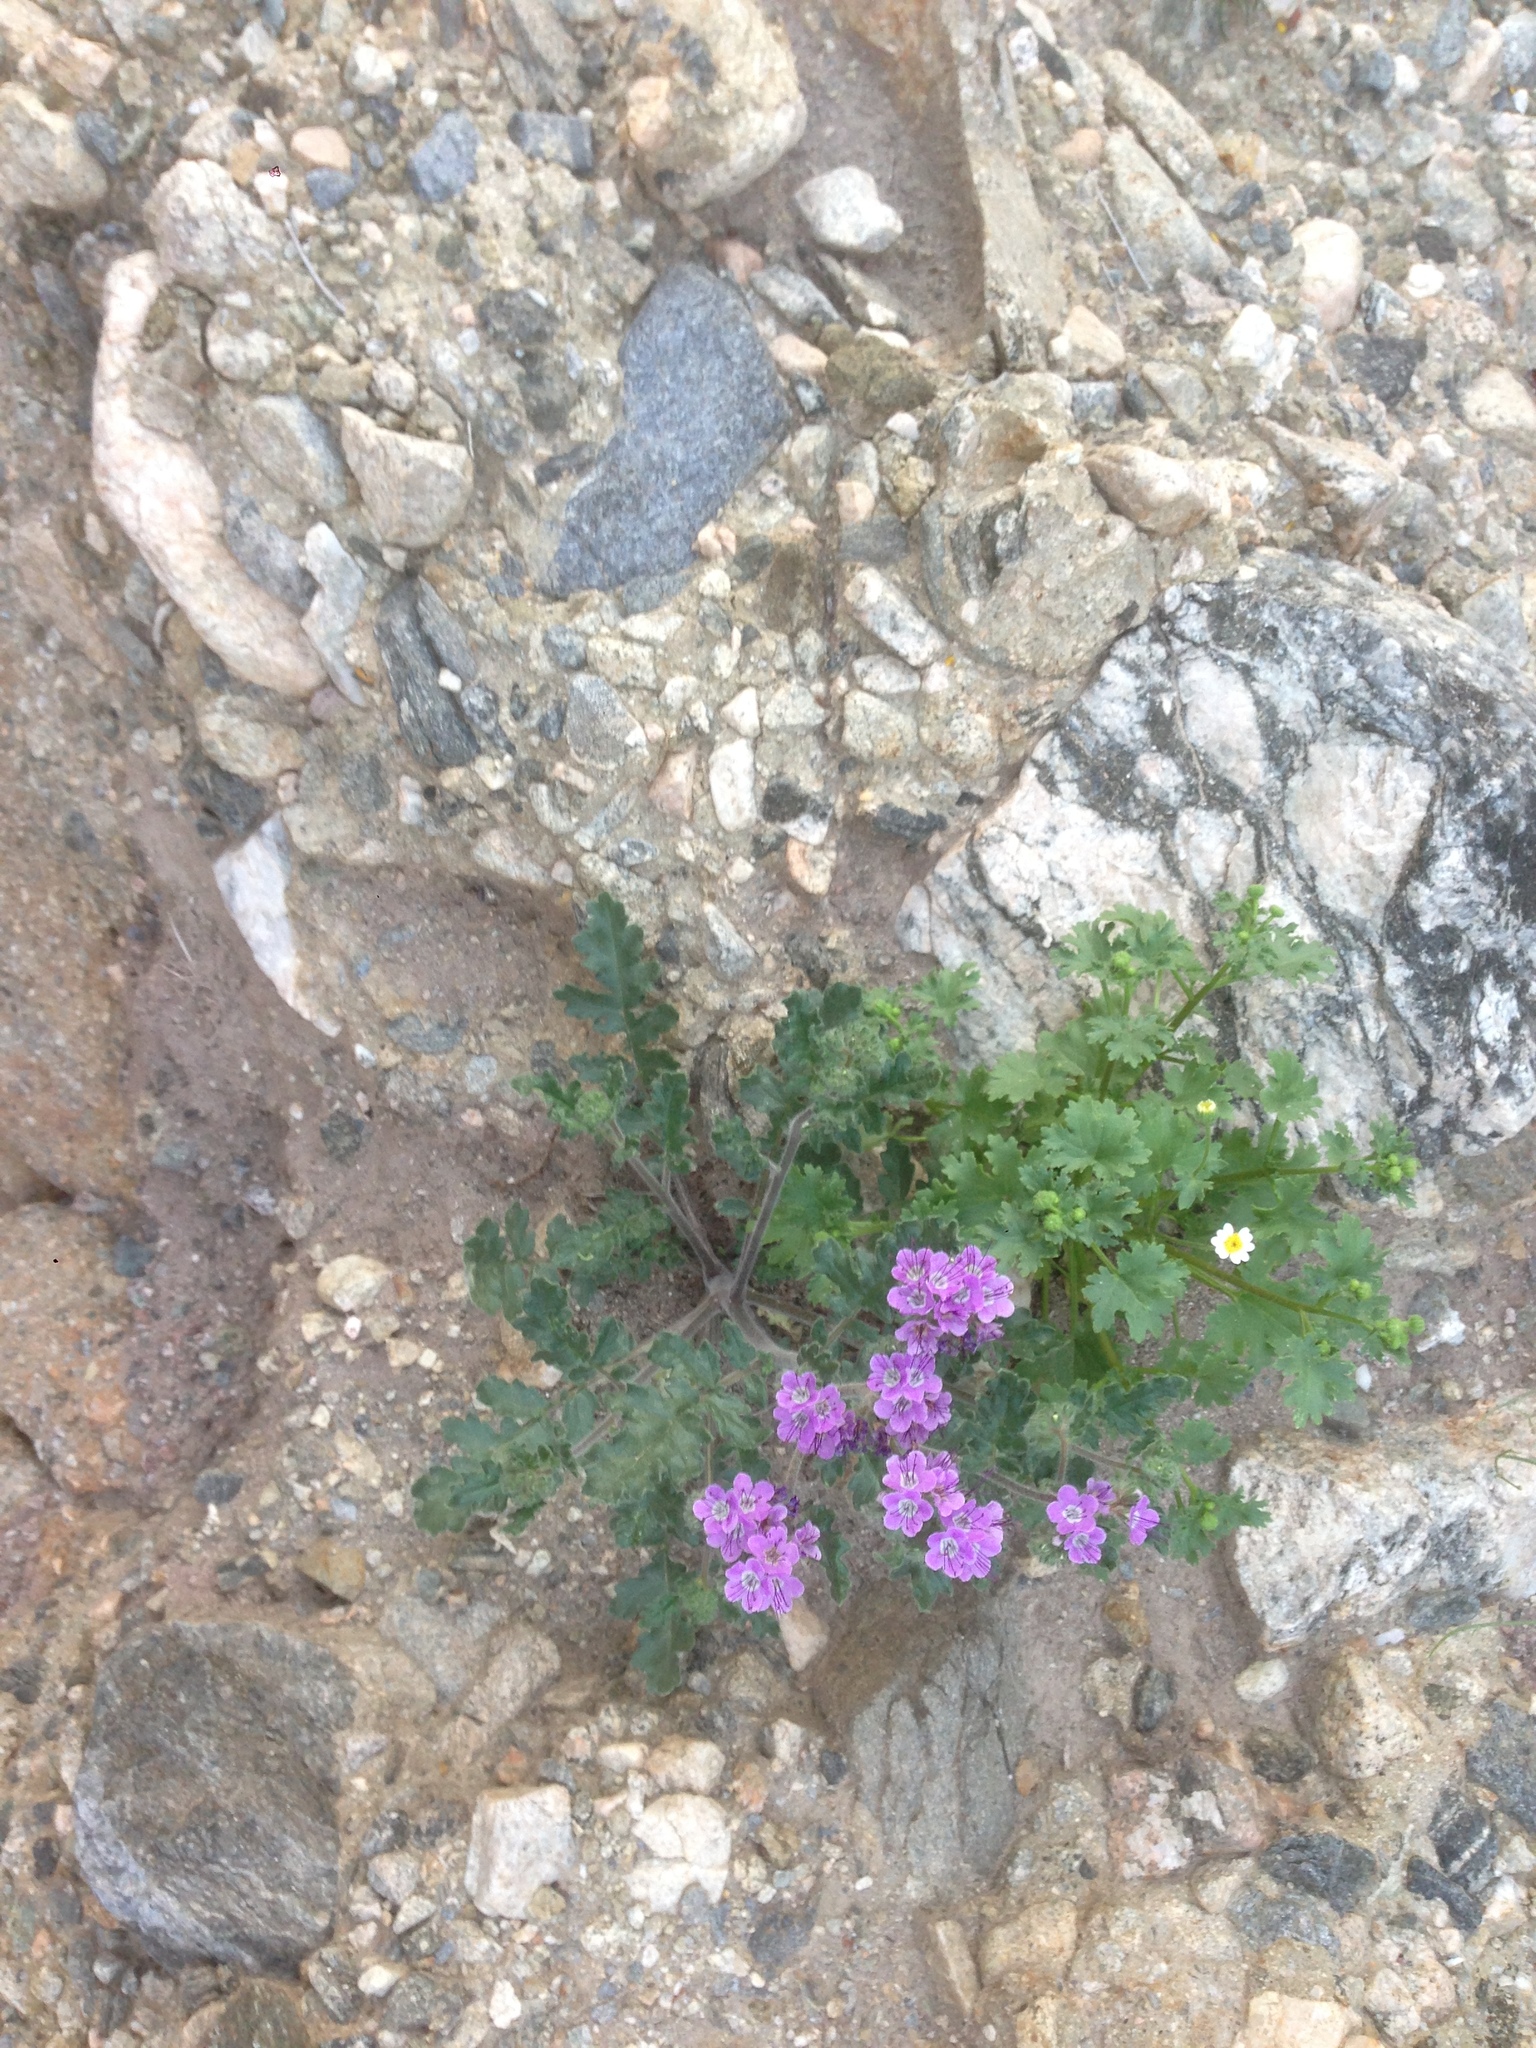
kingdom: Plantae
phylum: Tracheophyta
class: Magnoliopsida
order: Asterales
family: Asteraceae
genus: Laphamia
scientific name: Laphamia emoryi
